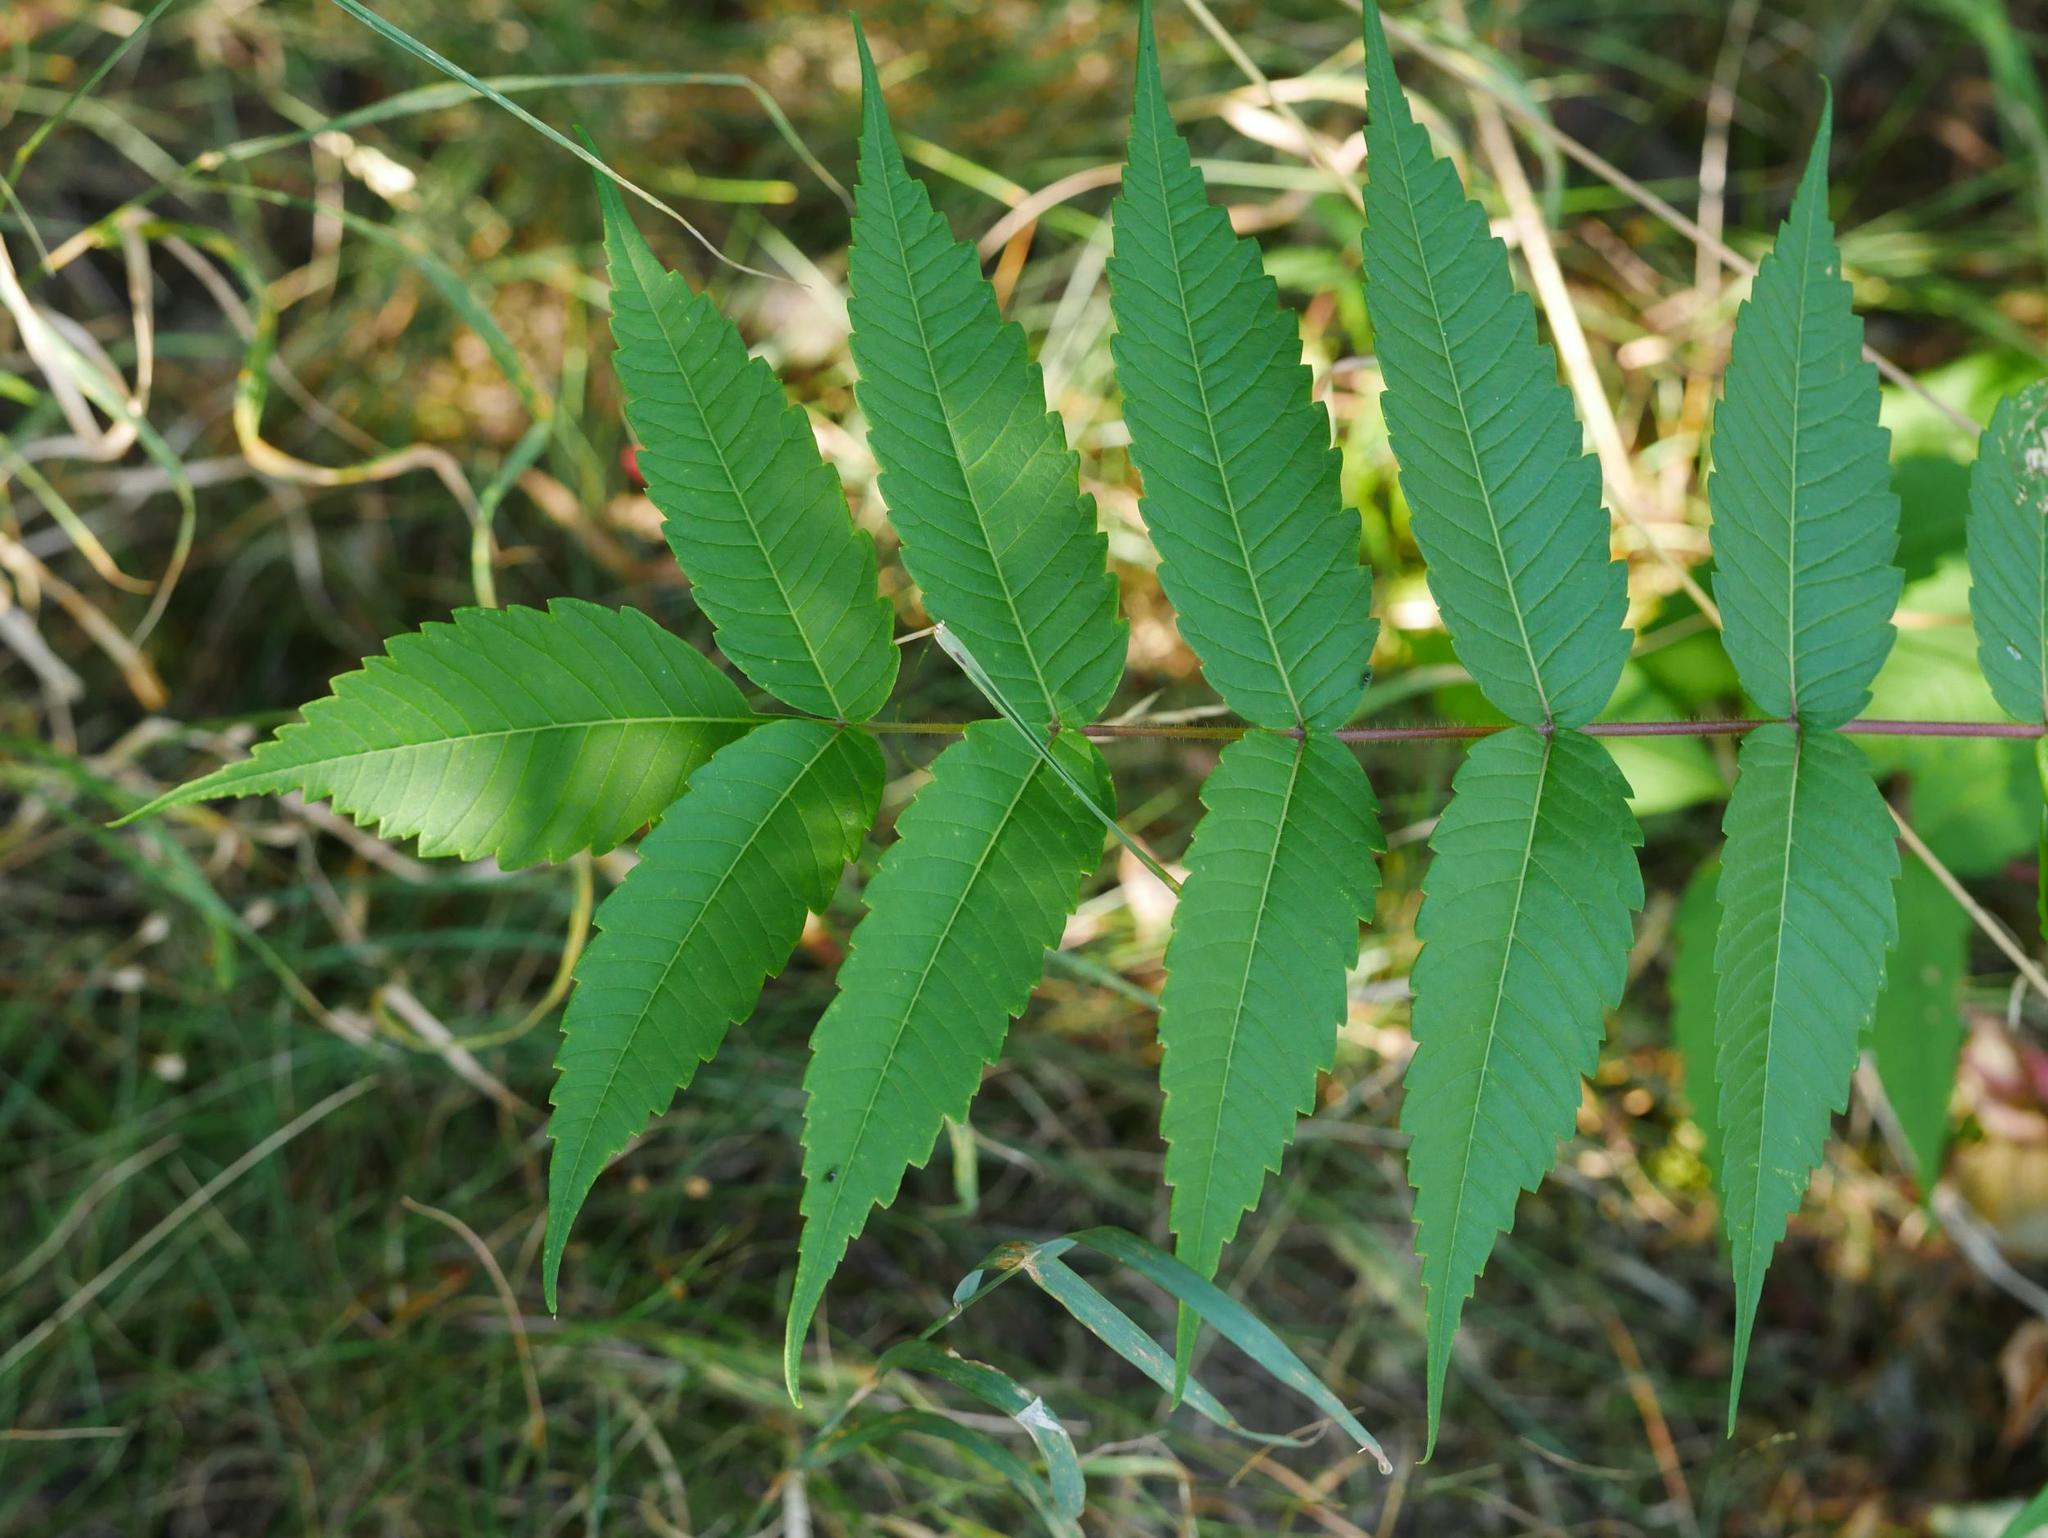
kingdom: Plantae
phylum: Tracheophyta
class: Magnoliopsida
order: Sapindales
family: Anacardiaceae
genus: Rhus
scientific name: Rhus typhina
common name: Staghorn sumac
